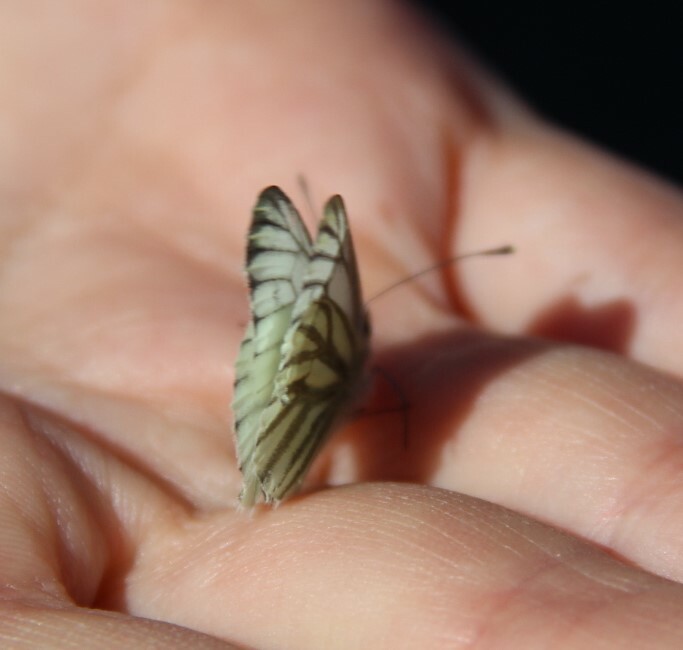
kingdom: Animalia
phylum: Arthropoda
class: Insecta
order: Lepidoptera
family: Pieridae
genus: Pieris
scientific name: Pieris napi
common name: Green-veined white
